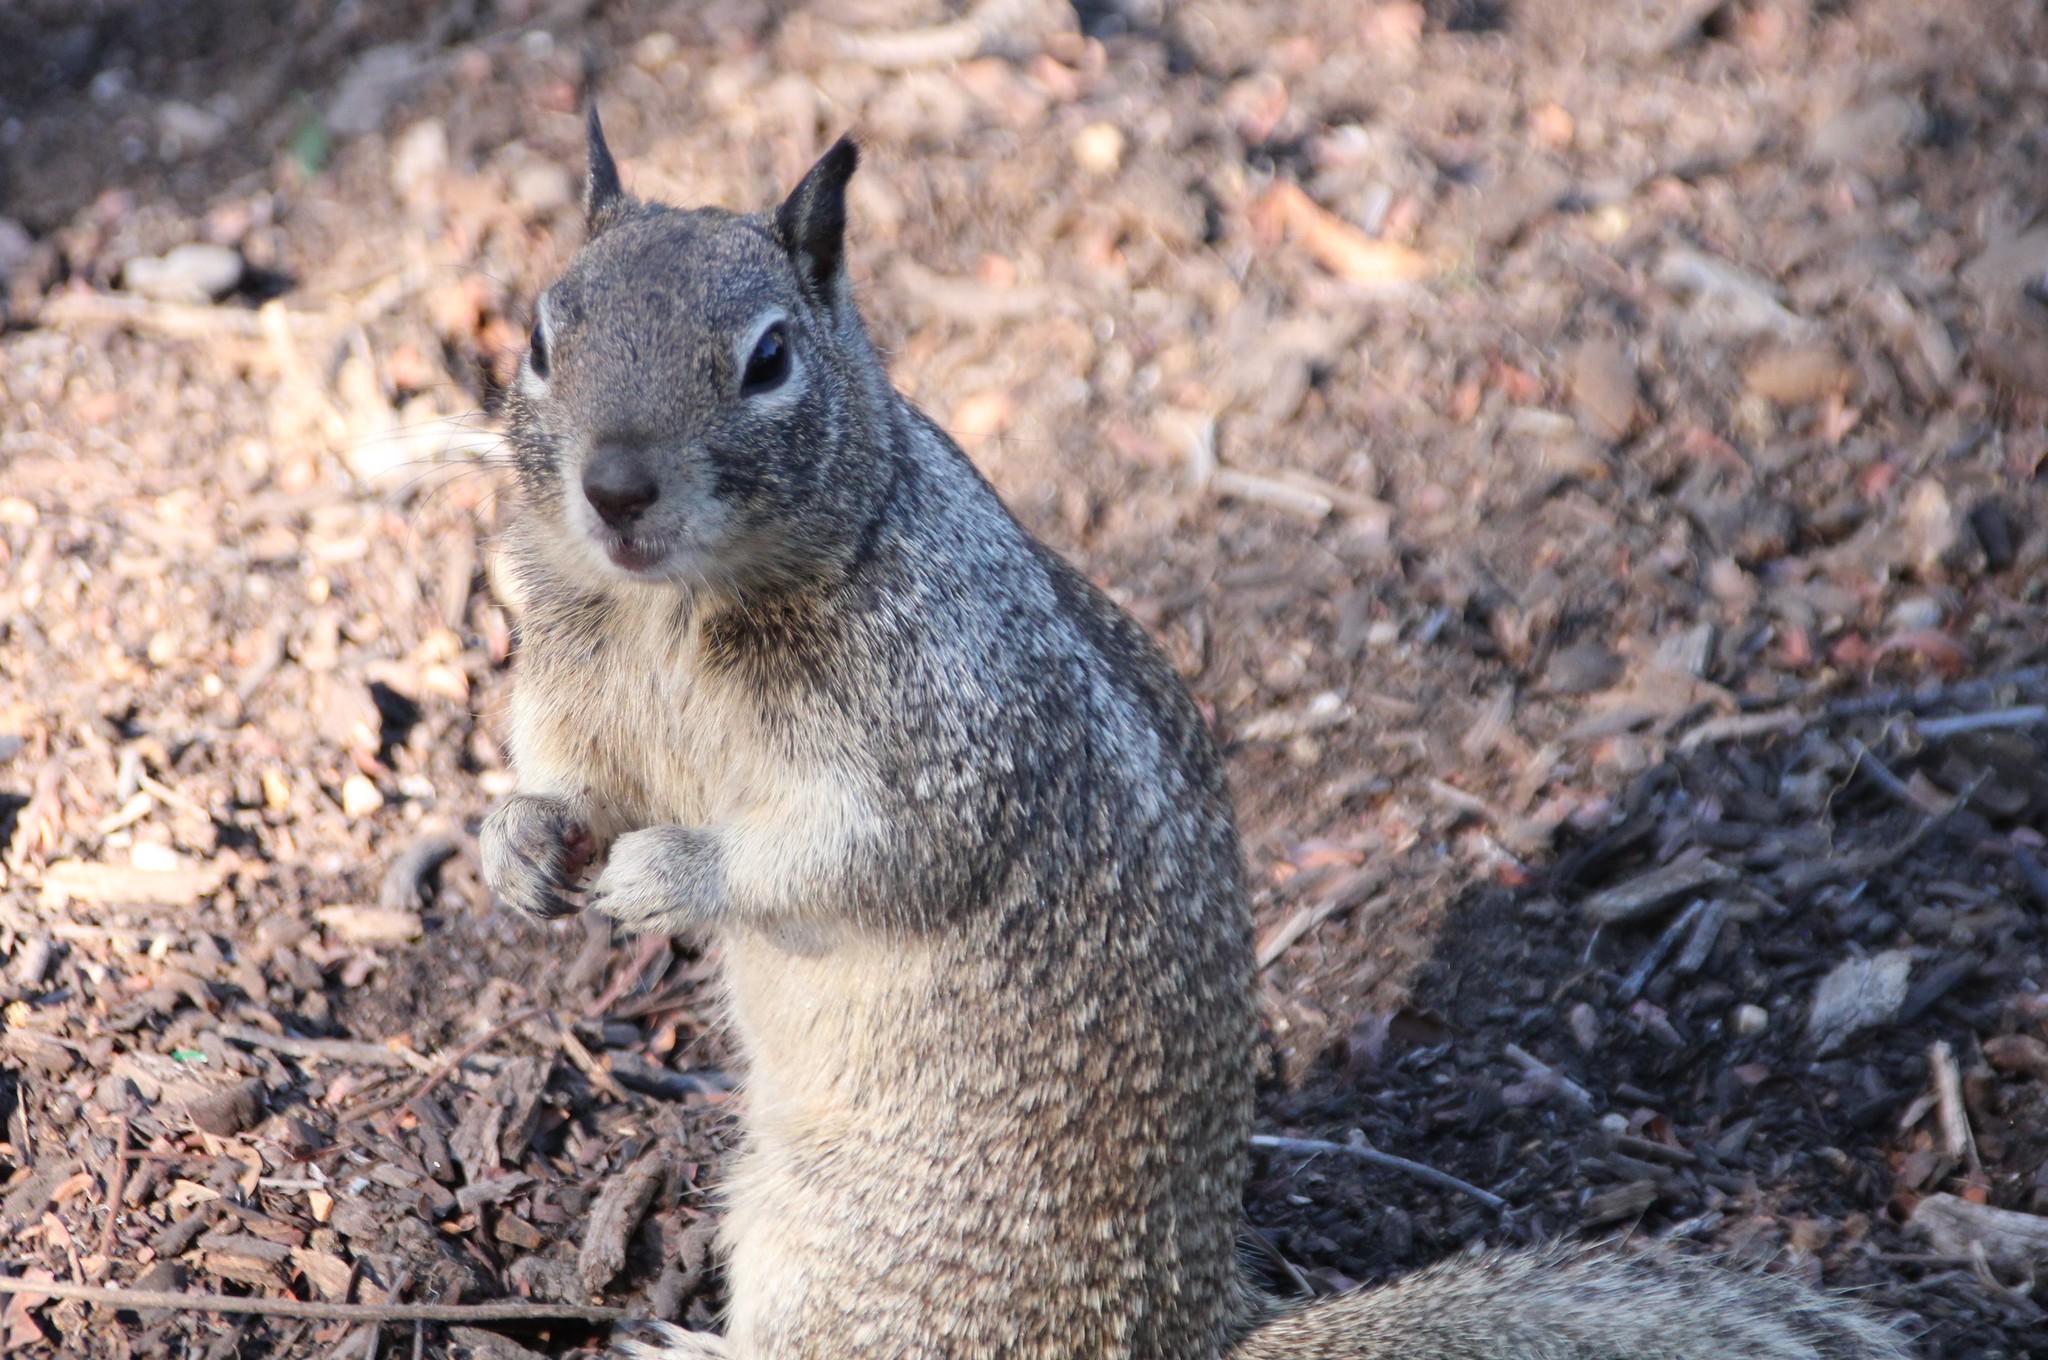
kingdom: Animalia
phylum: Chordata
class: Mammalia
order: Rodentia
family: Sciuridae
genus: Otospermophilus
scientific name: Otospermophilus beecheyi
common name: California ground squirrel
